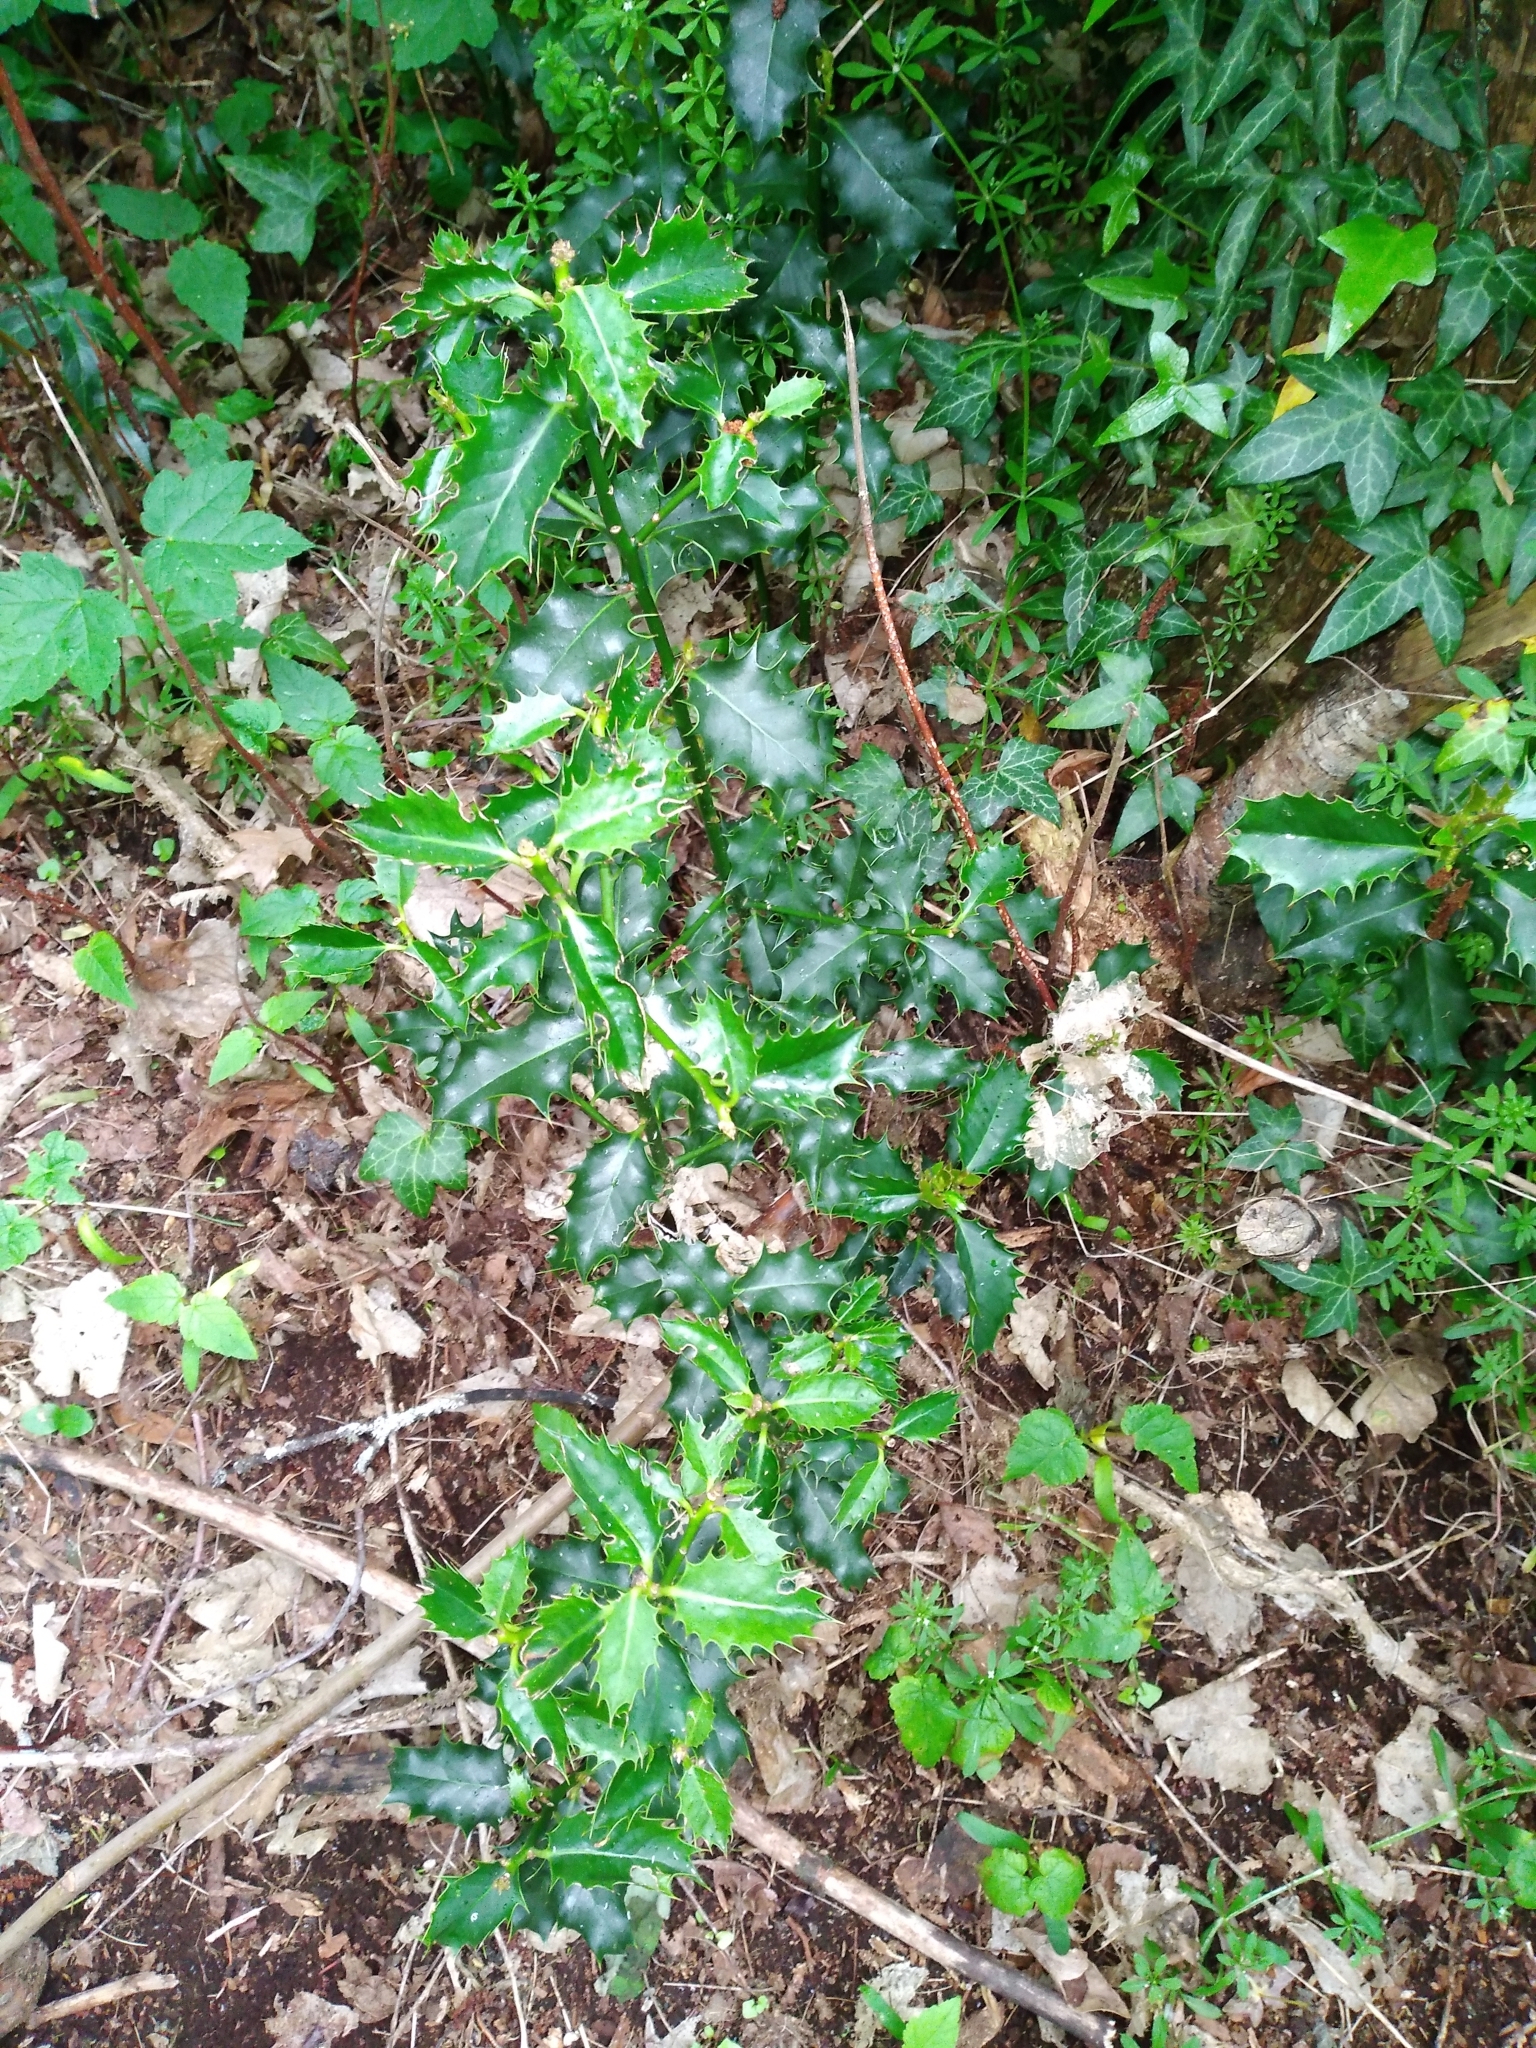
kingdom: Plantae
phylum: Tracheophyta
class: Magnoliopsida
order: Aquifoliales
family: Aquifoliaceae
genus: Ilex
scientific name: Ilex aquifolium
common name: English holly
